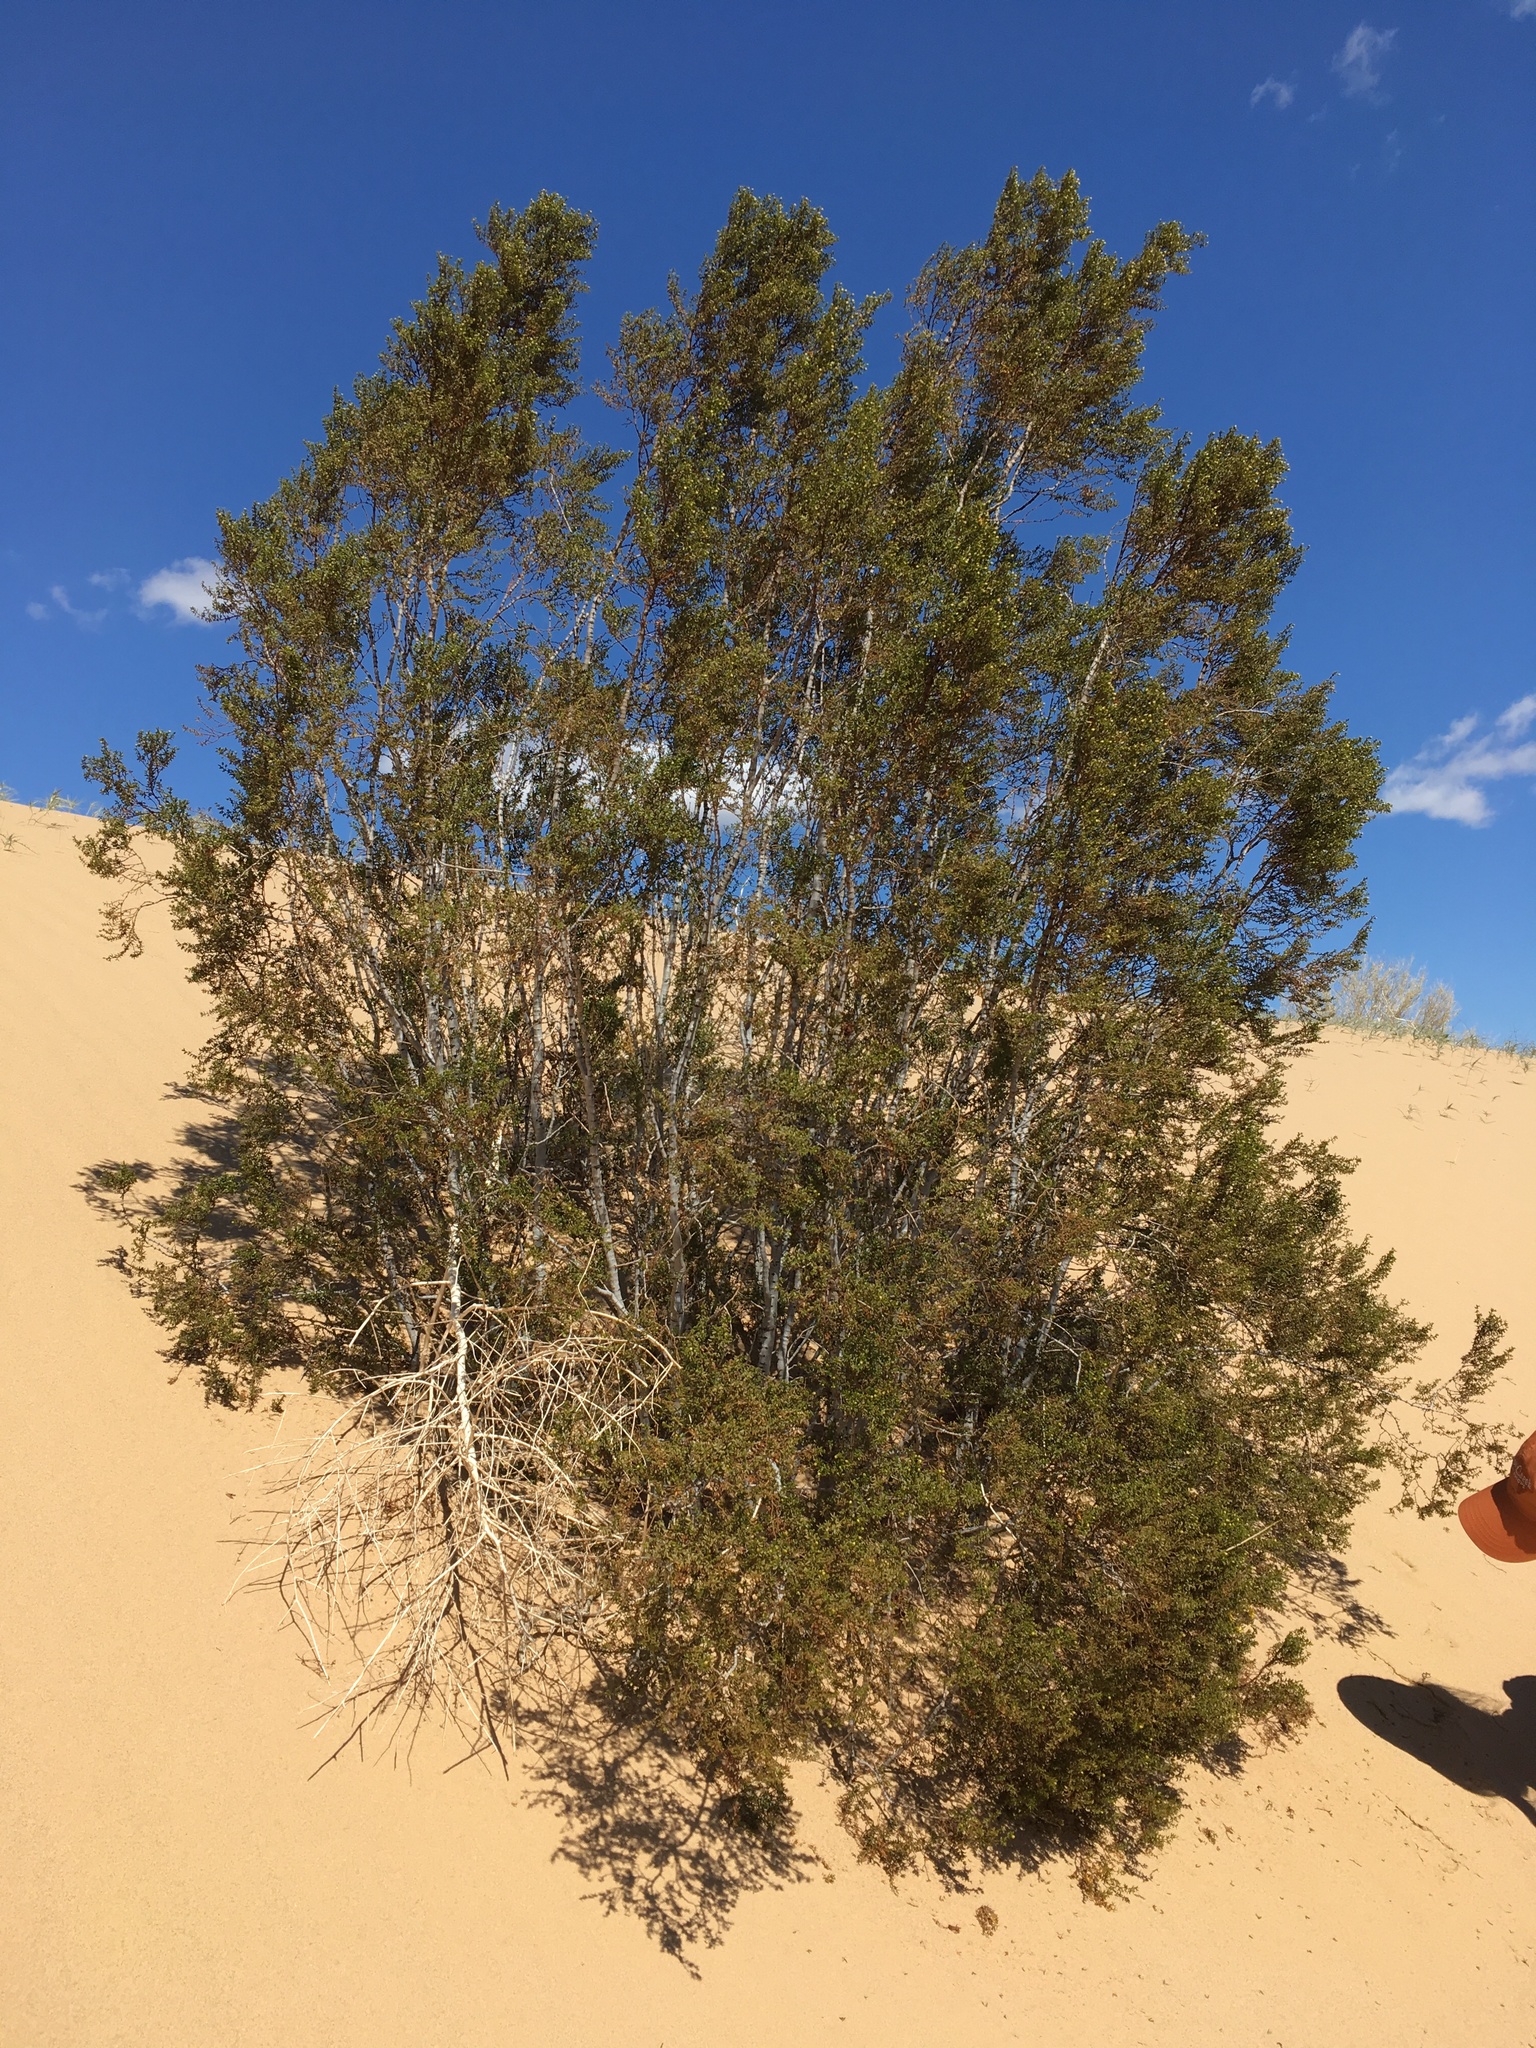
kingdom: Plantae
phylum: Tracheophyta
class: Magnoliopsida
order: Zygophyllales
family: Zygophyllaceae
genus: Larrea
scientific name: Larrea tridentata
